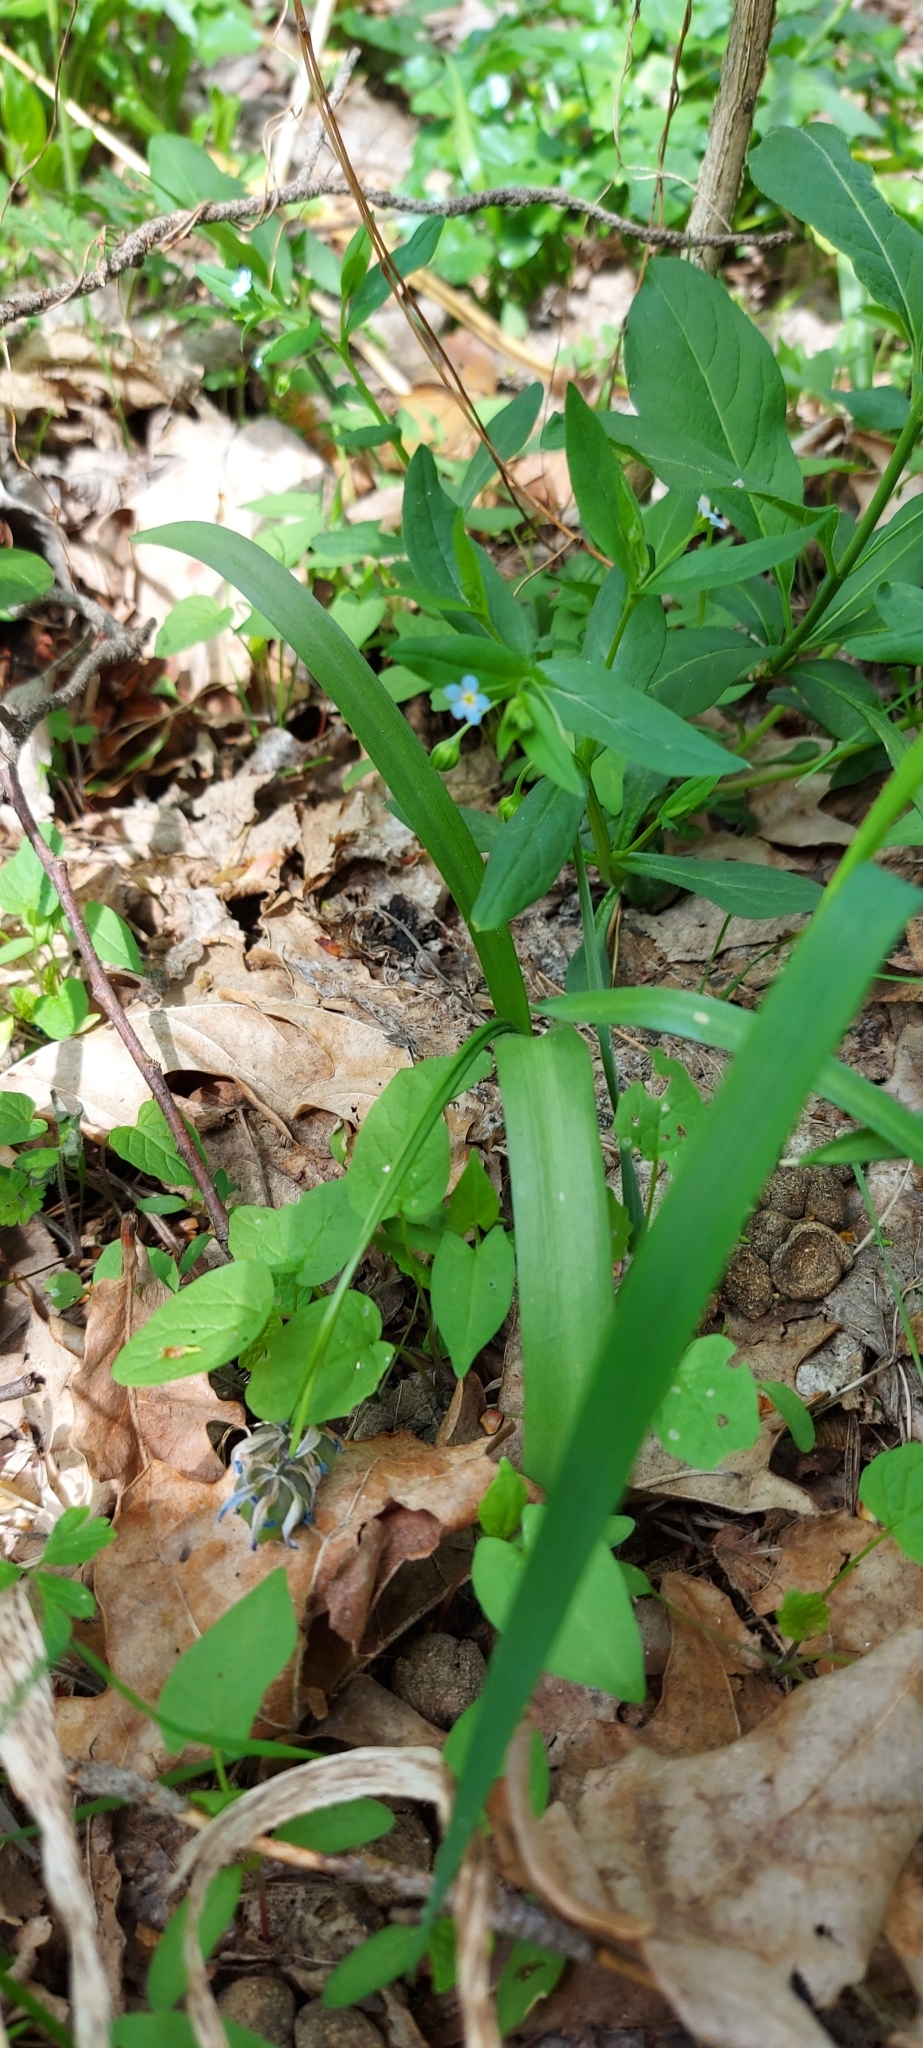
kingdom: Plantae
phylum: Tracheophyta
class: Magnoliopsida
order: Boraginales
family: Boraginaceae
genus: Memoremea
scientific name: Memoremea scorpioides
